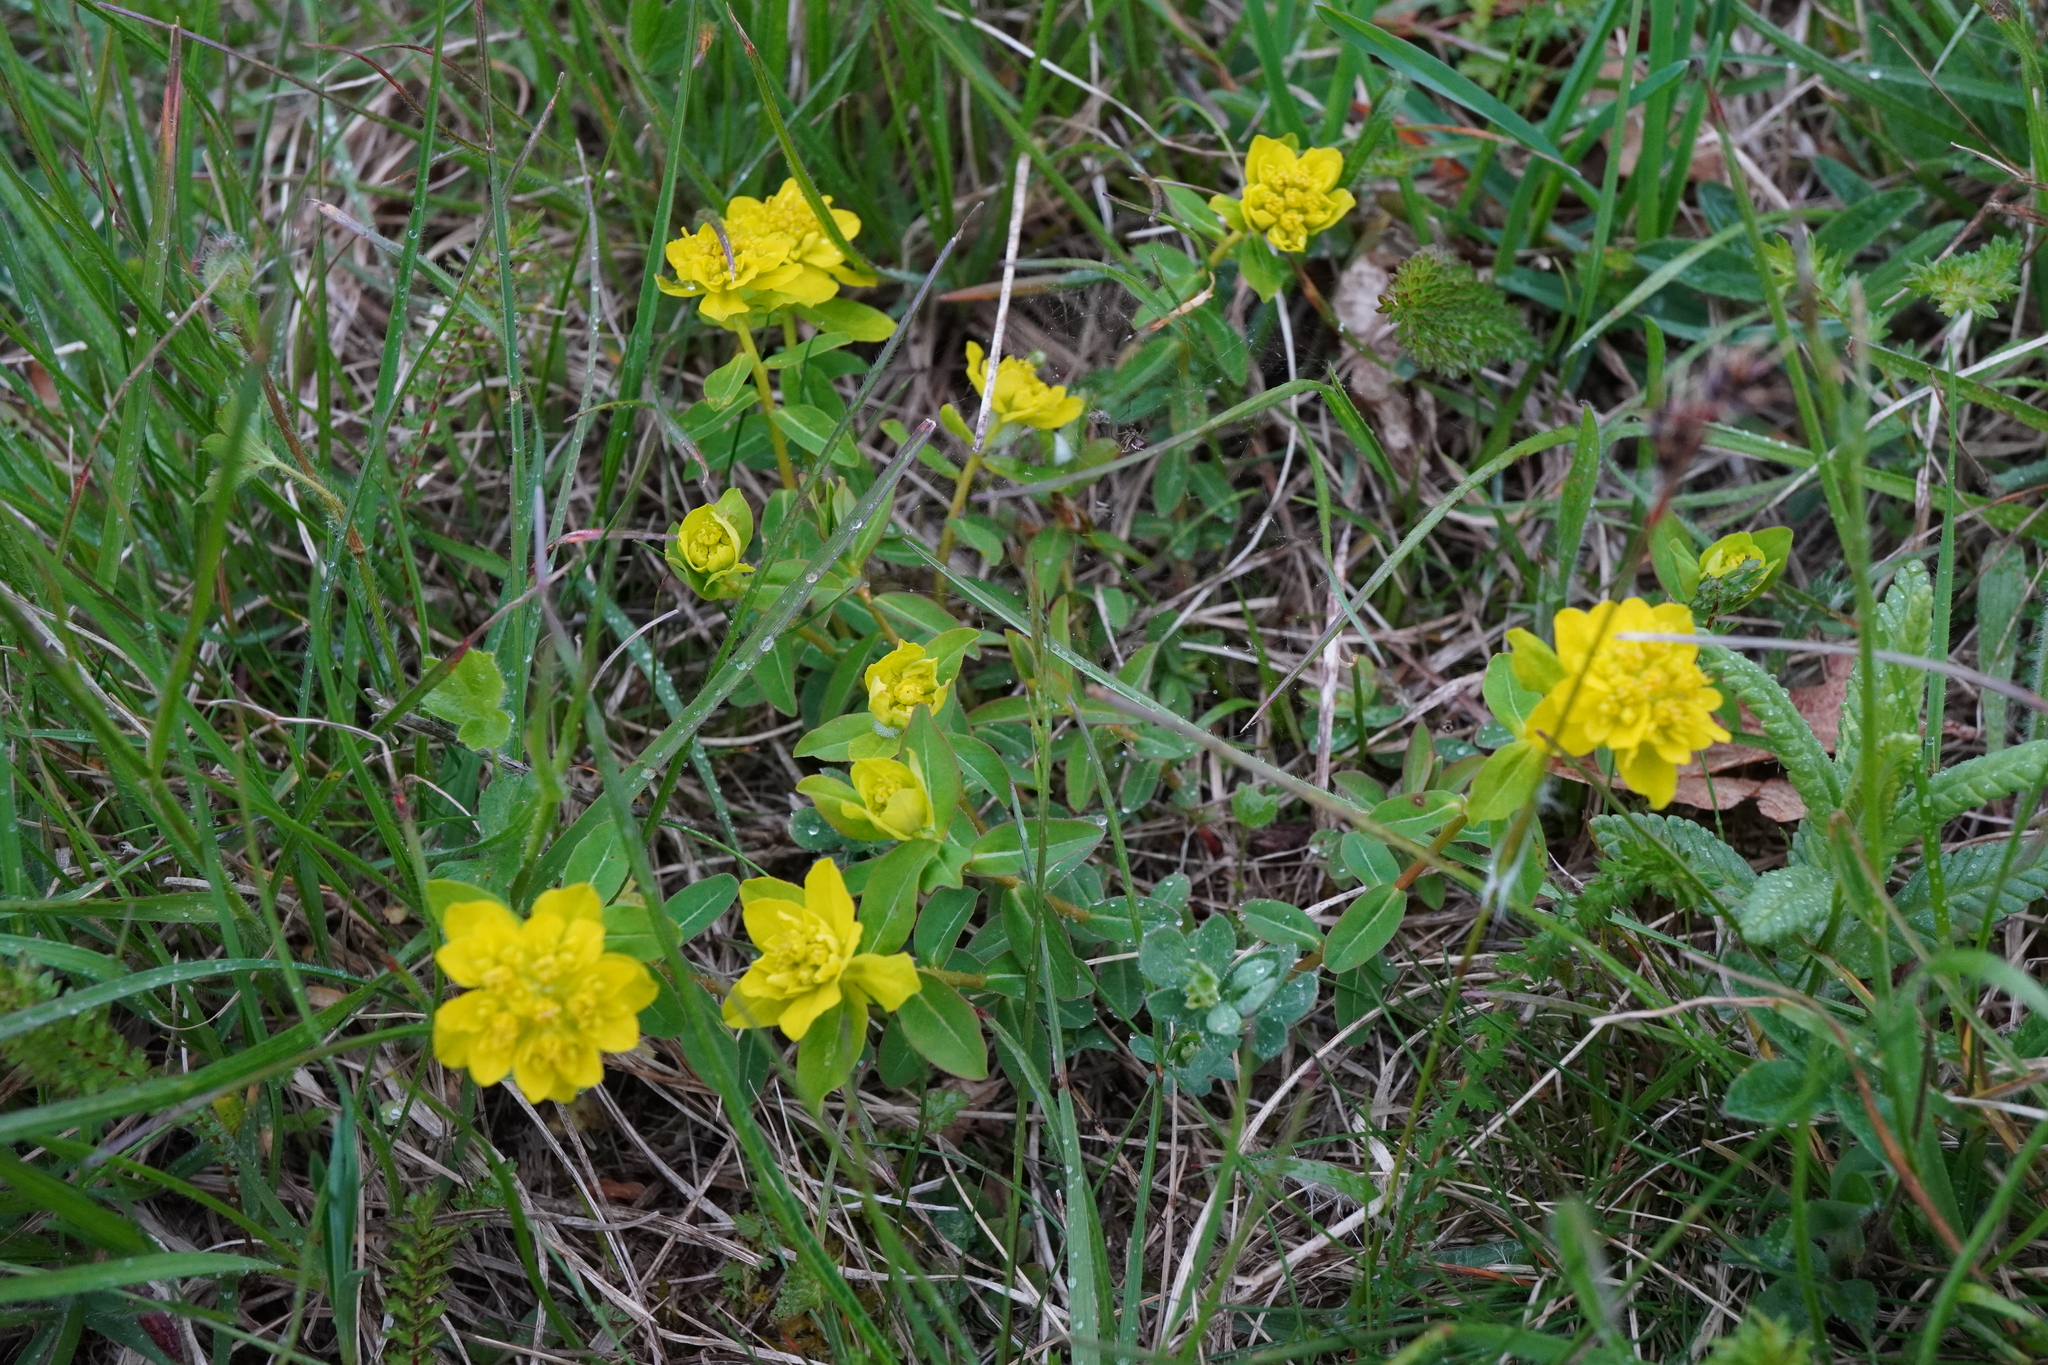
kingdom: Plantae
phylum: Tracheophyta
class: Magnoliopsida
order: Malpighiales
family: Euphorbiaceae
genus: Euphorbia
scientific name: Euphorbia verrucosa
